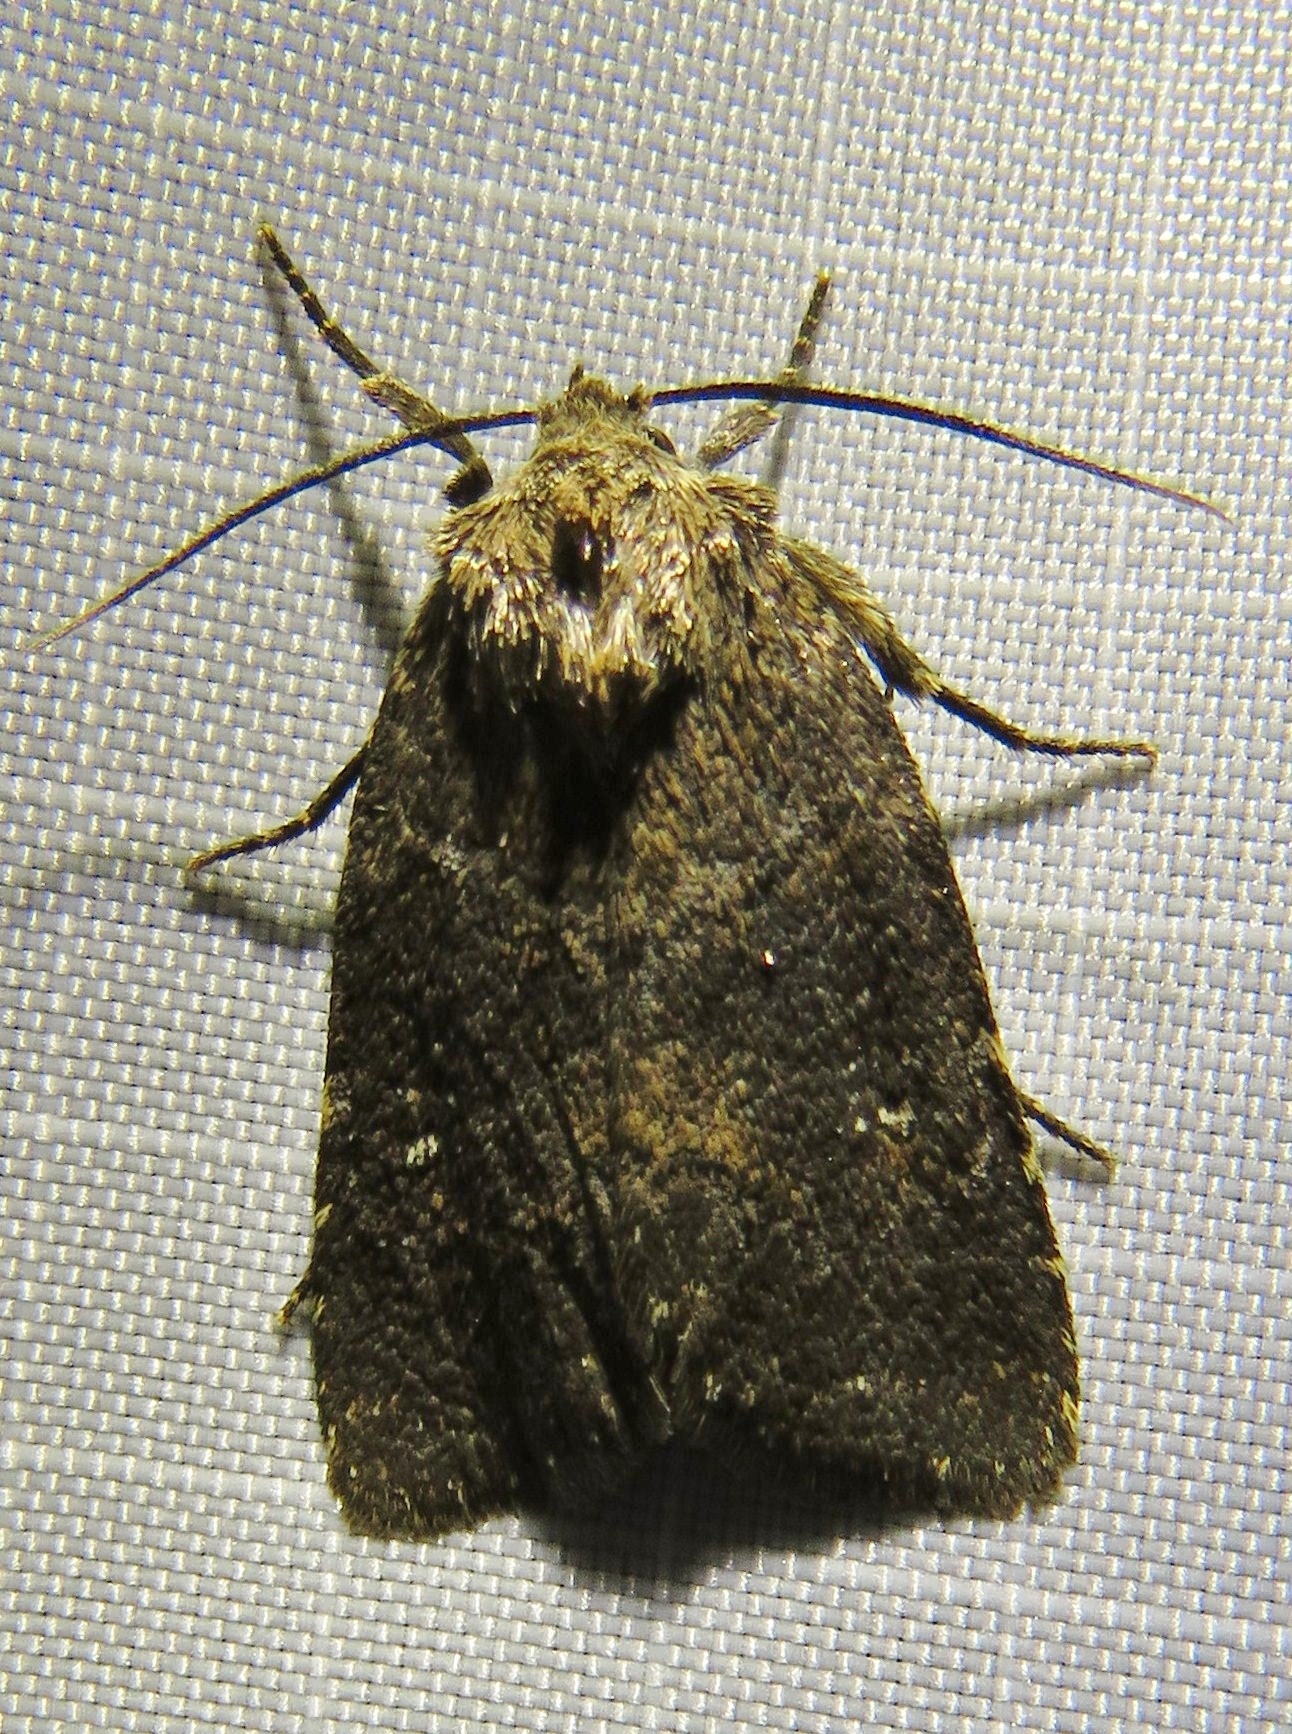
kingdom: Animalia
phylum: Arthropoda
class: Insecta
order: Lepidoptera
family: Noctuidae
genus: Charanyca
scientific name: Charanyca ferruginea
